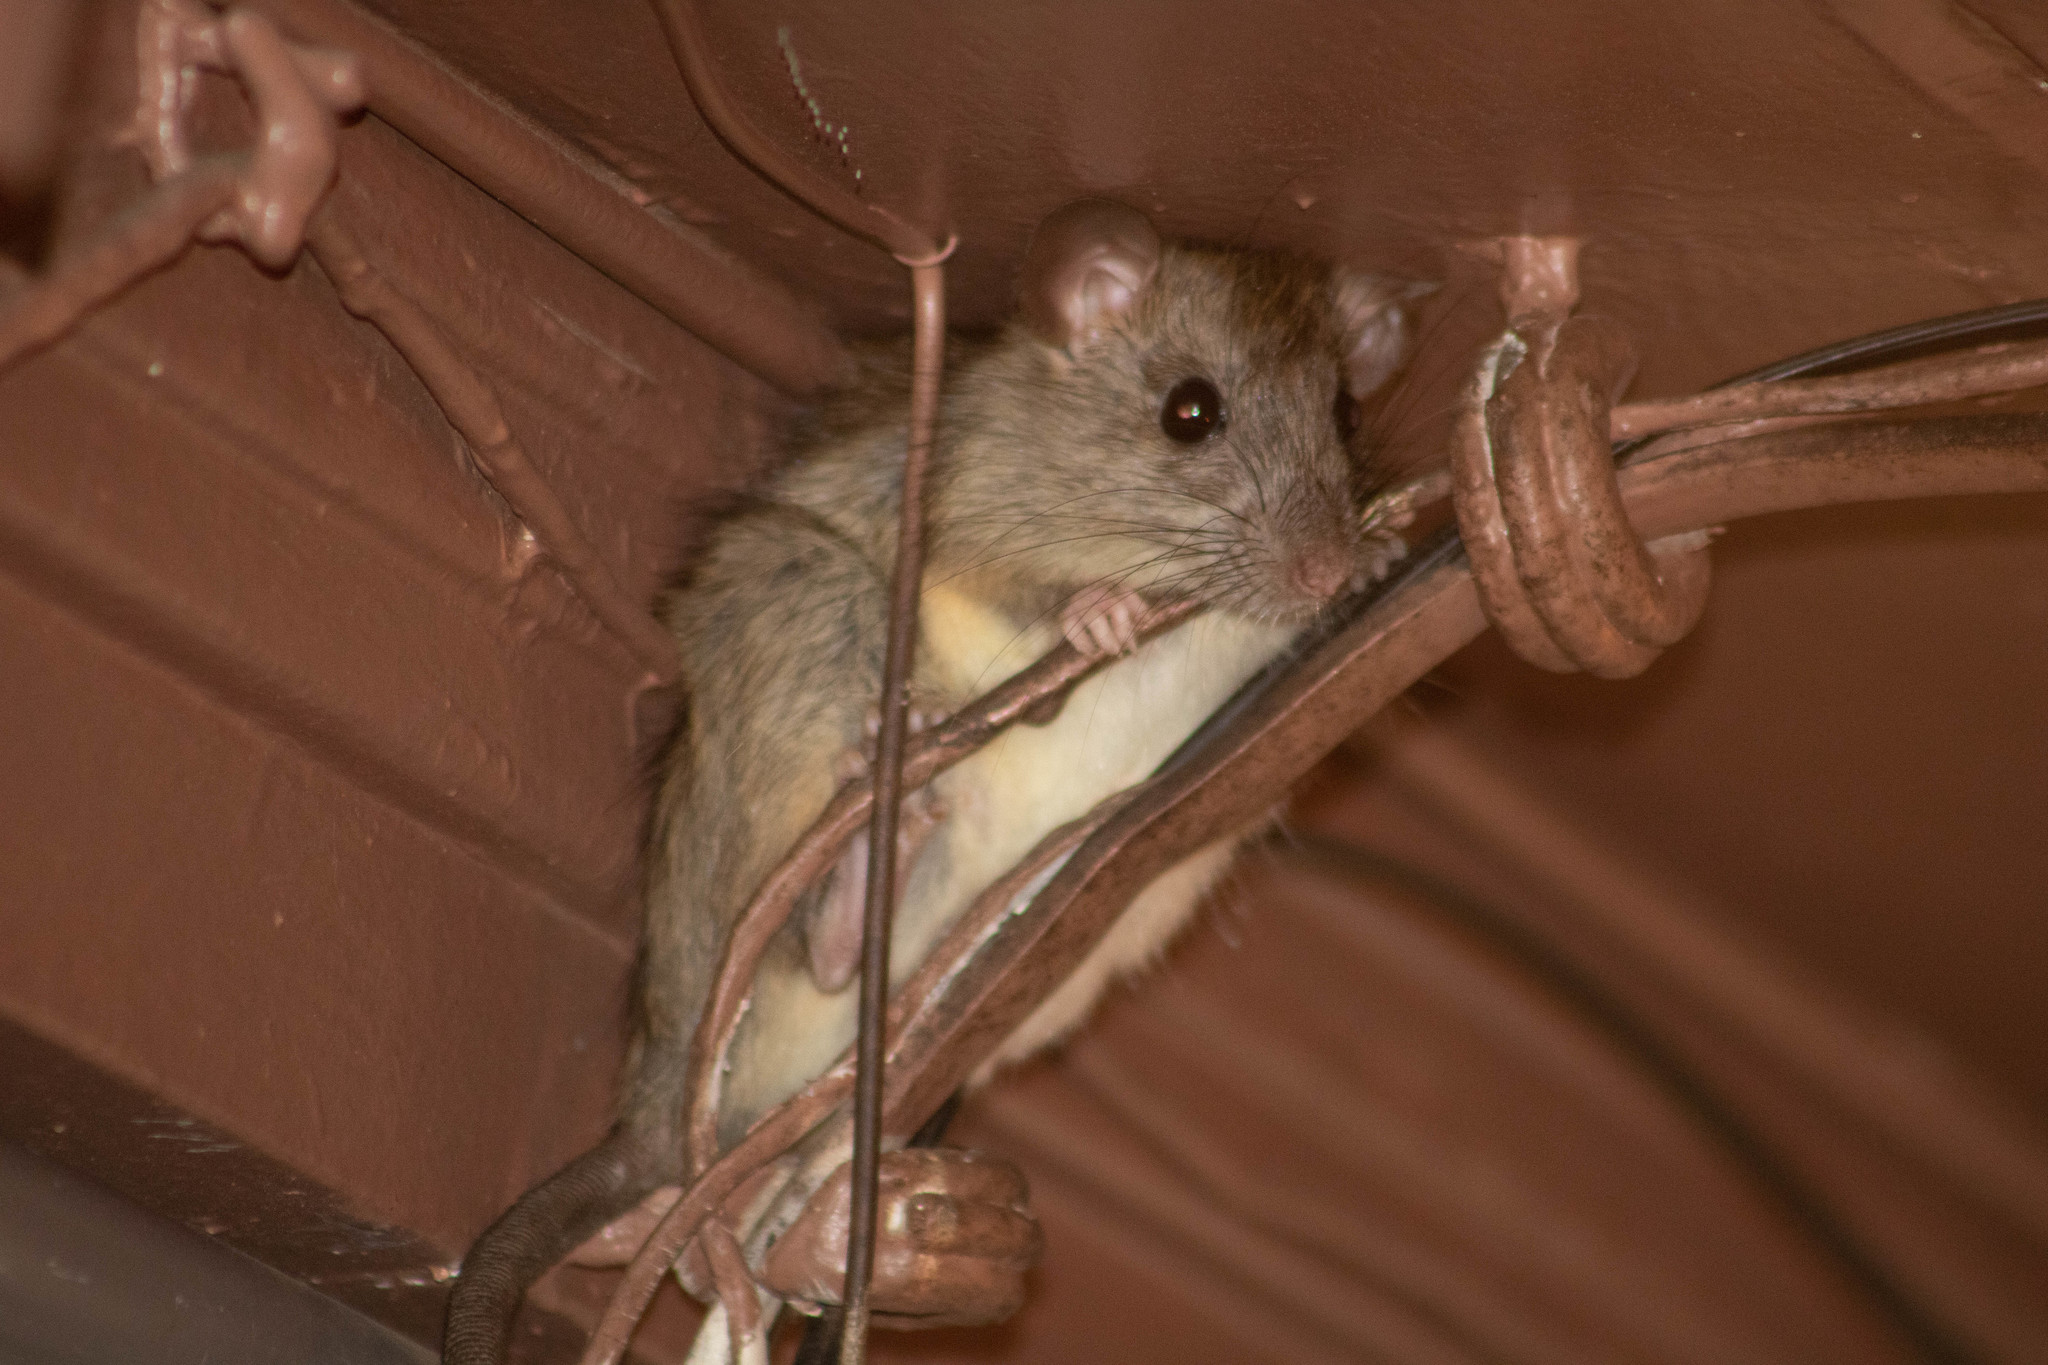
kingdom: Animalia
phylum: Chordata
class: Mammalia
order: Rodentia
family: Muridae
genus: Rattus
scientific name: Rattus rattus
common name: Black rat
